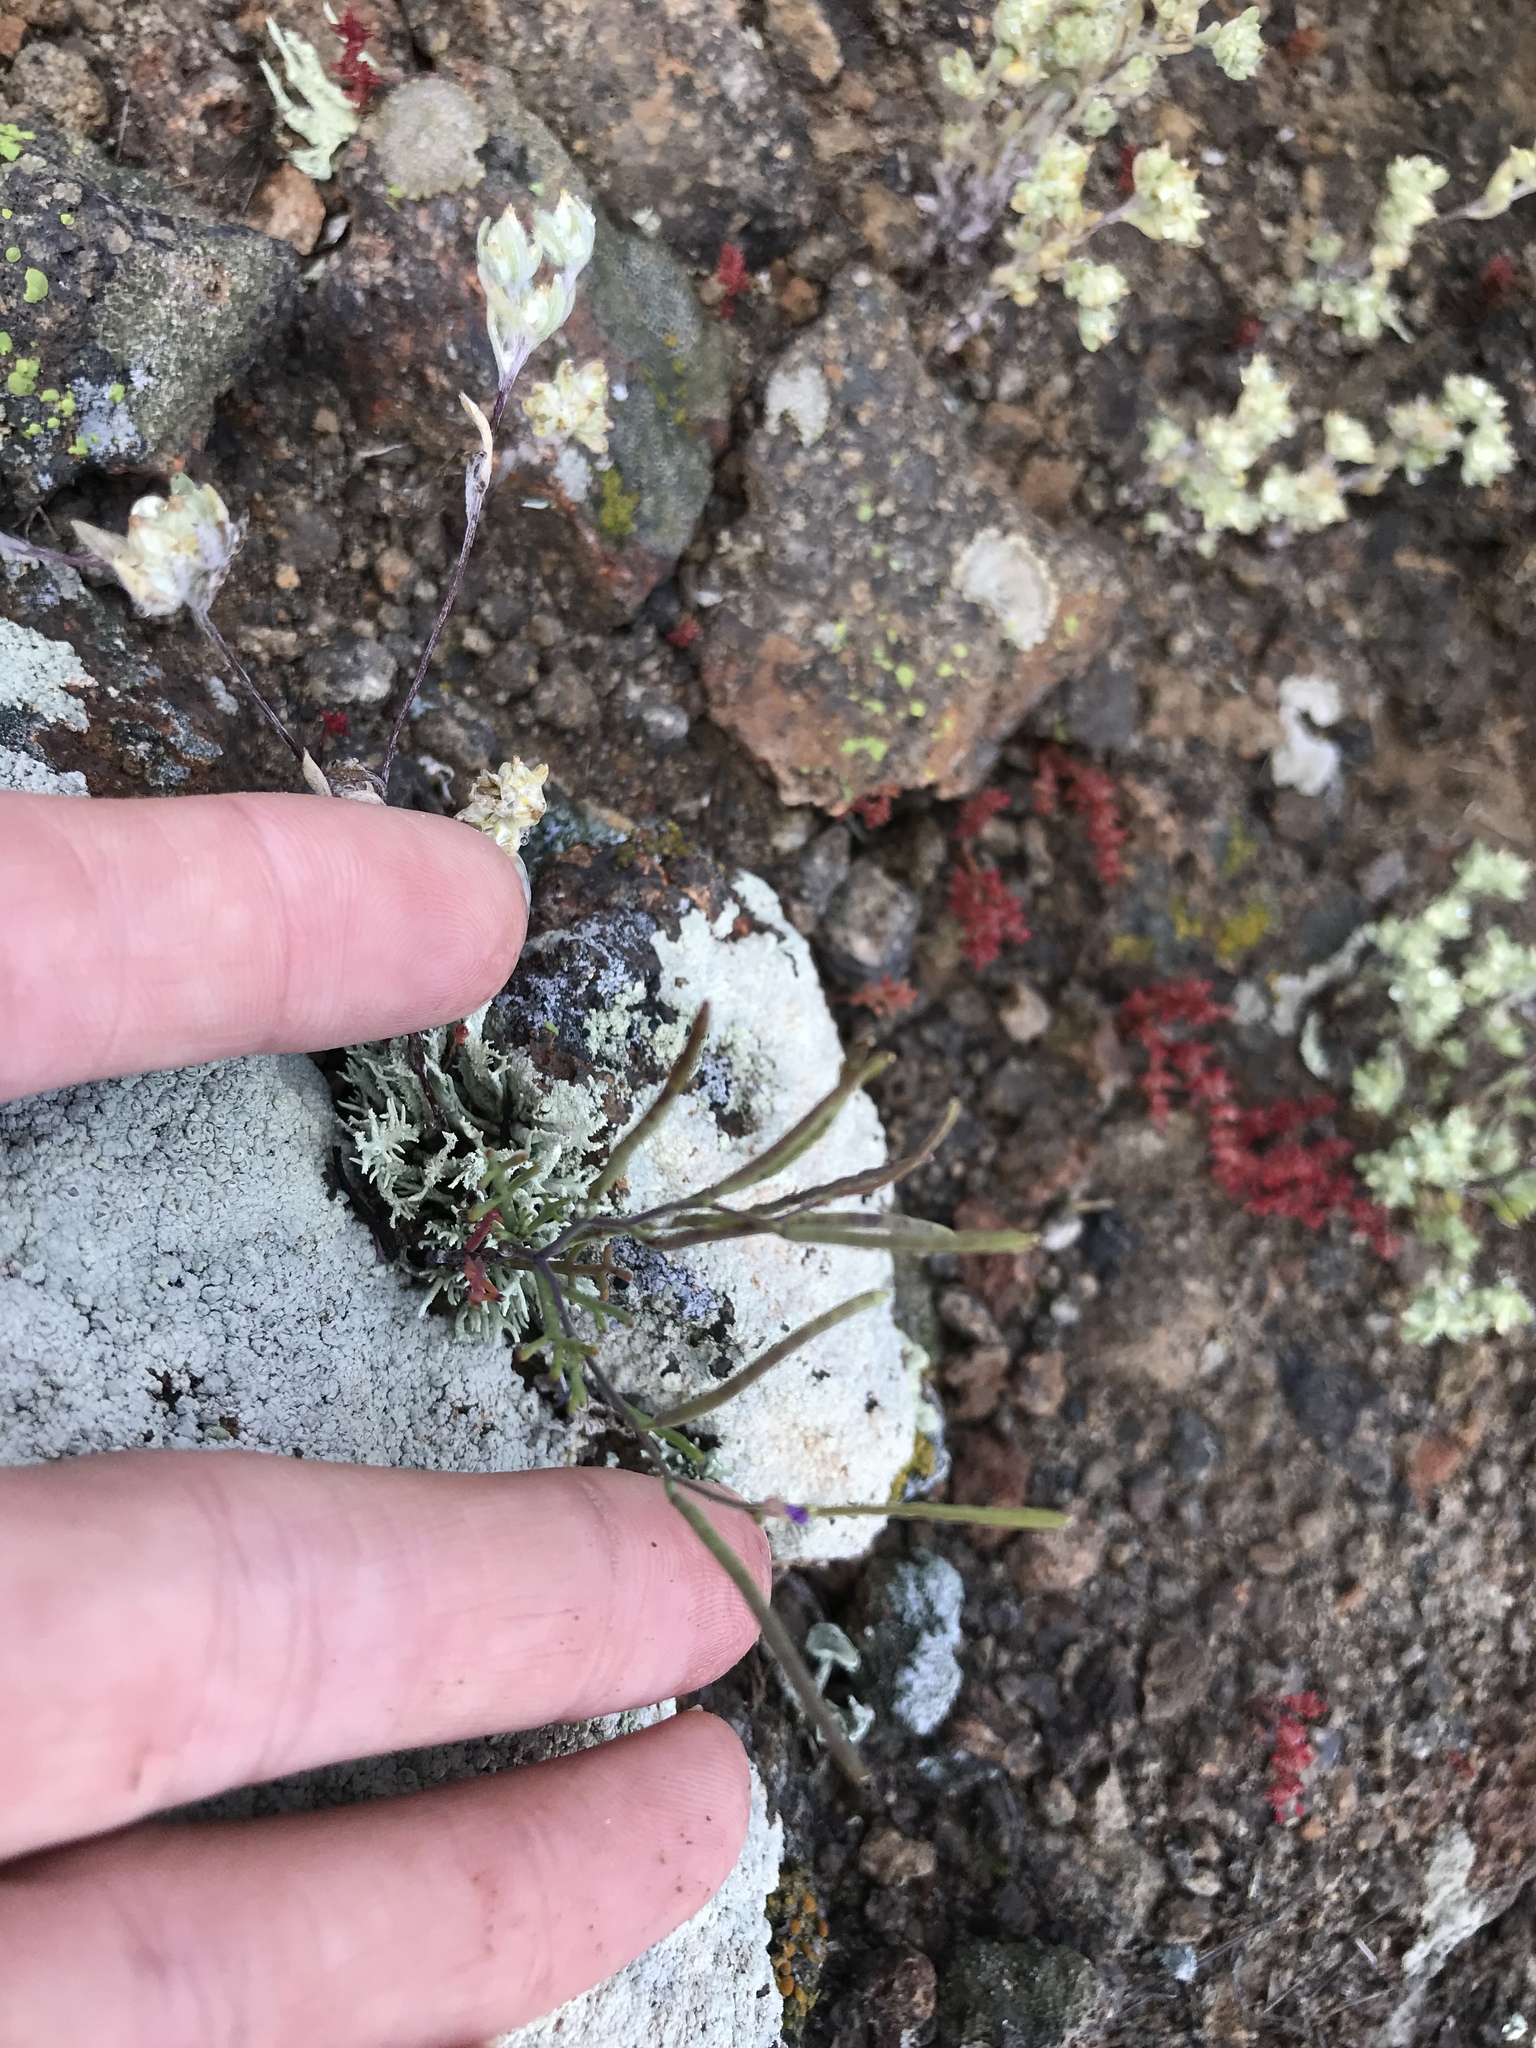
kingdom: Plantae
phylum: Tracheophyta
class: Magnoliopsida
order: Brassicales
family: Brassicaceae
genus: Sibara
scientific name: Sibara filifolia
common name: Santa cruz island-rockcress
